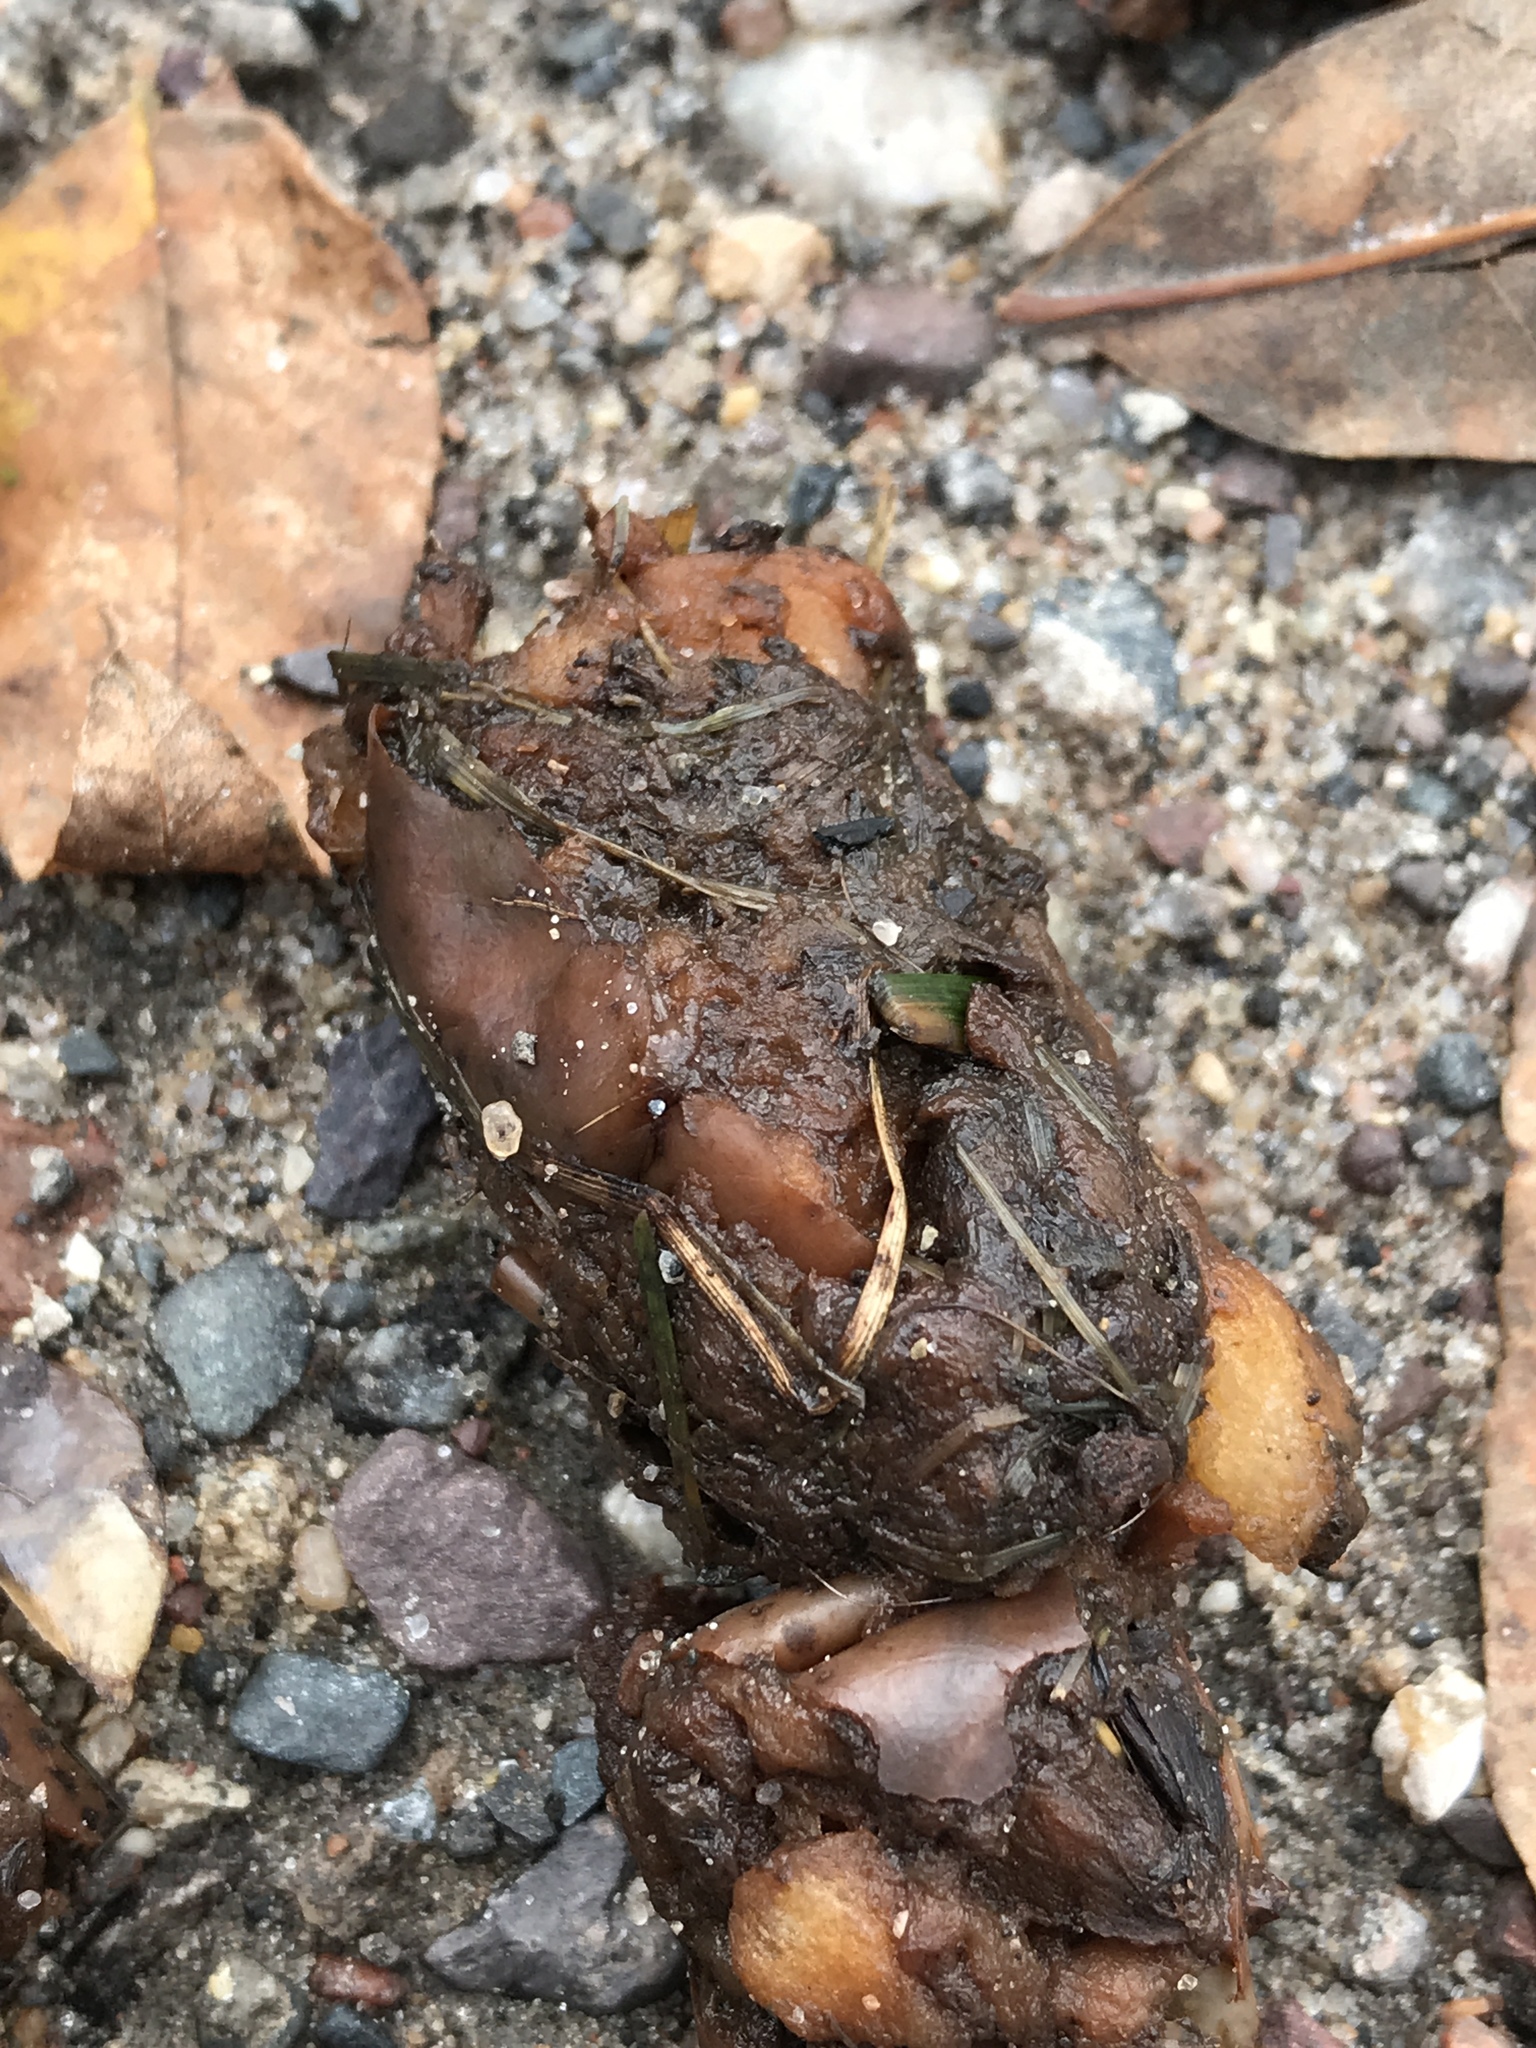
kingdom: Animalia
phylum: Chordata
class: Mammalia
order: Carnivora
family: Canidae
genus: Canis
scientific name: Canis latrans
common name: Coyote
